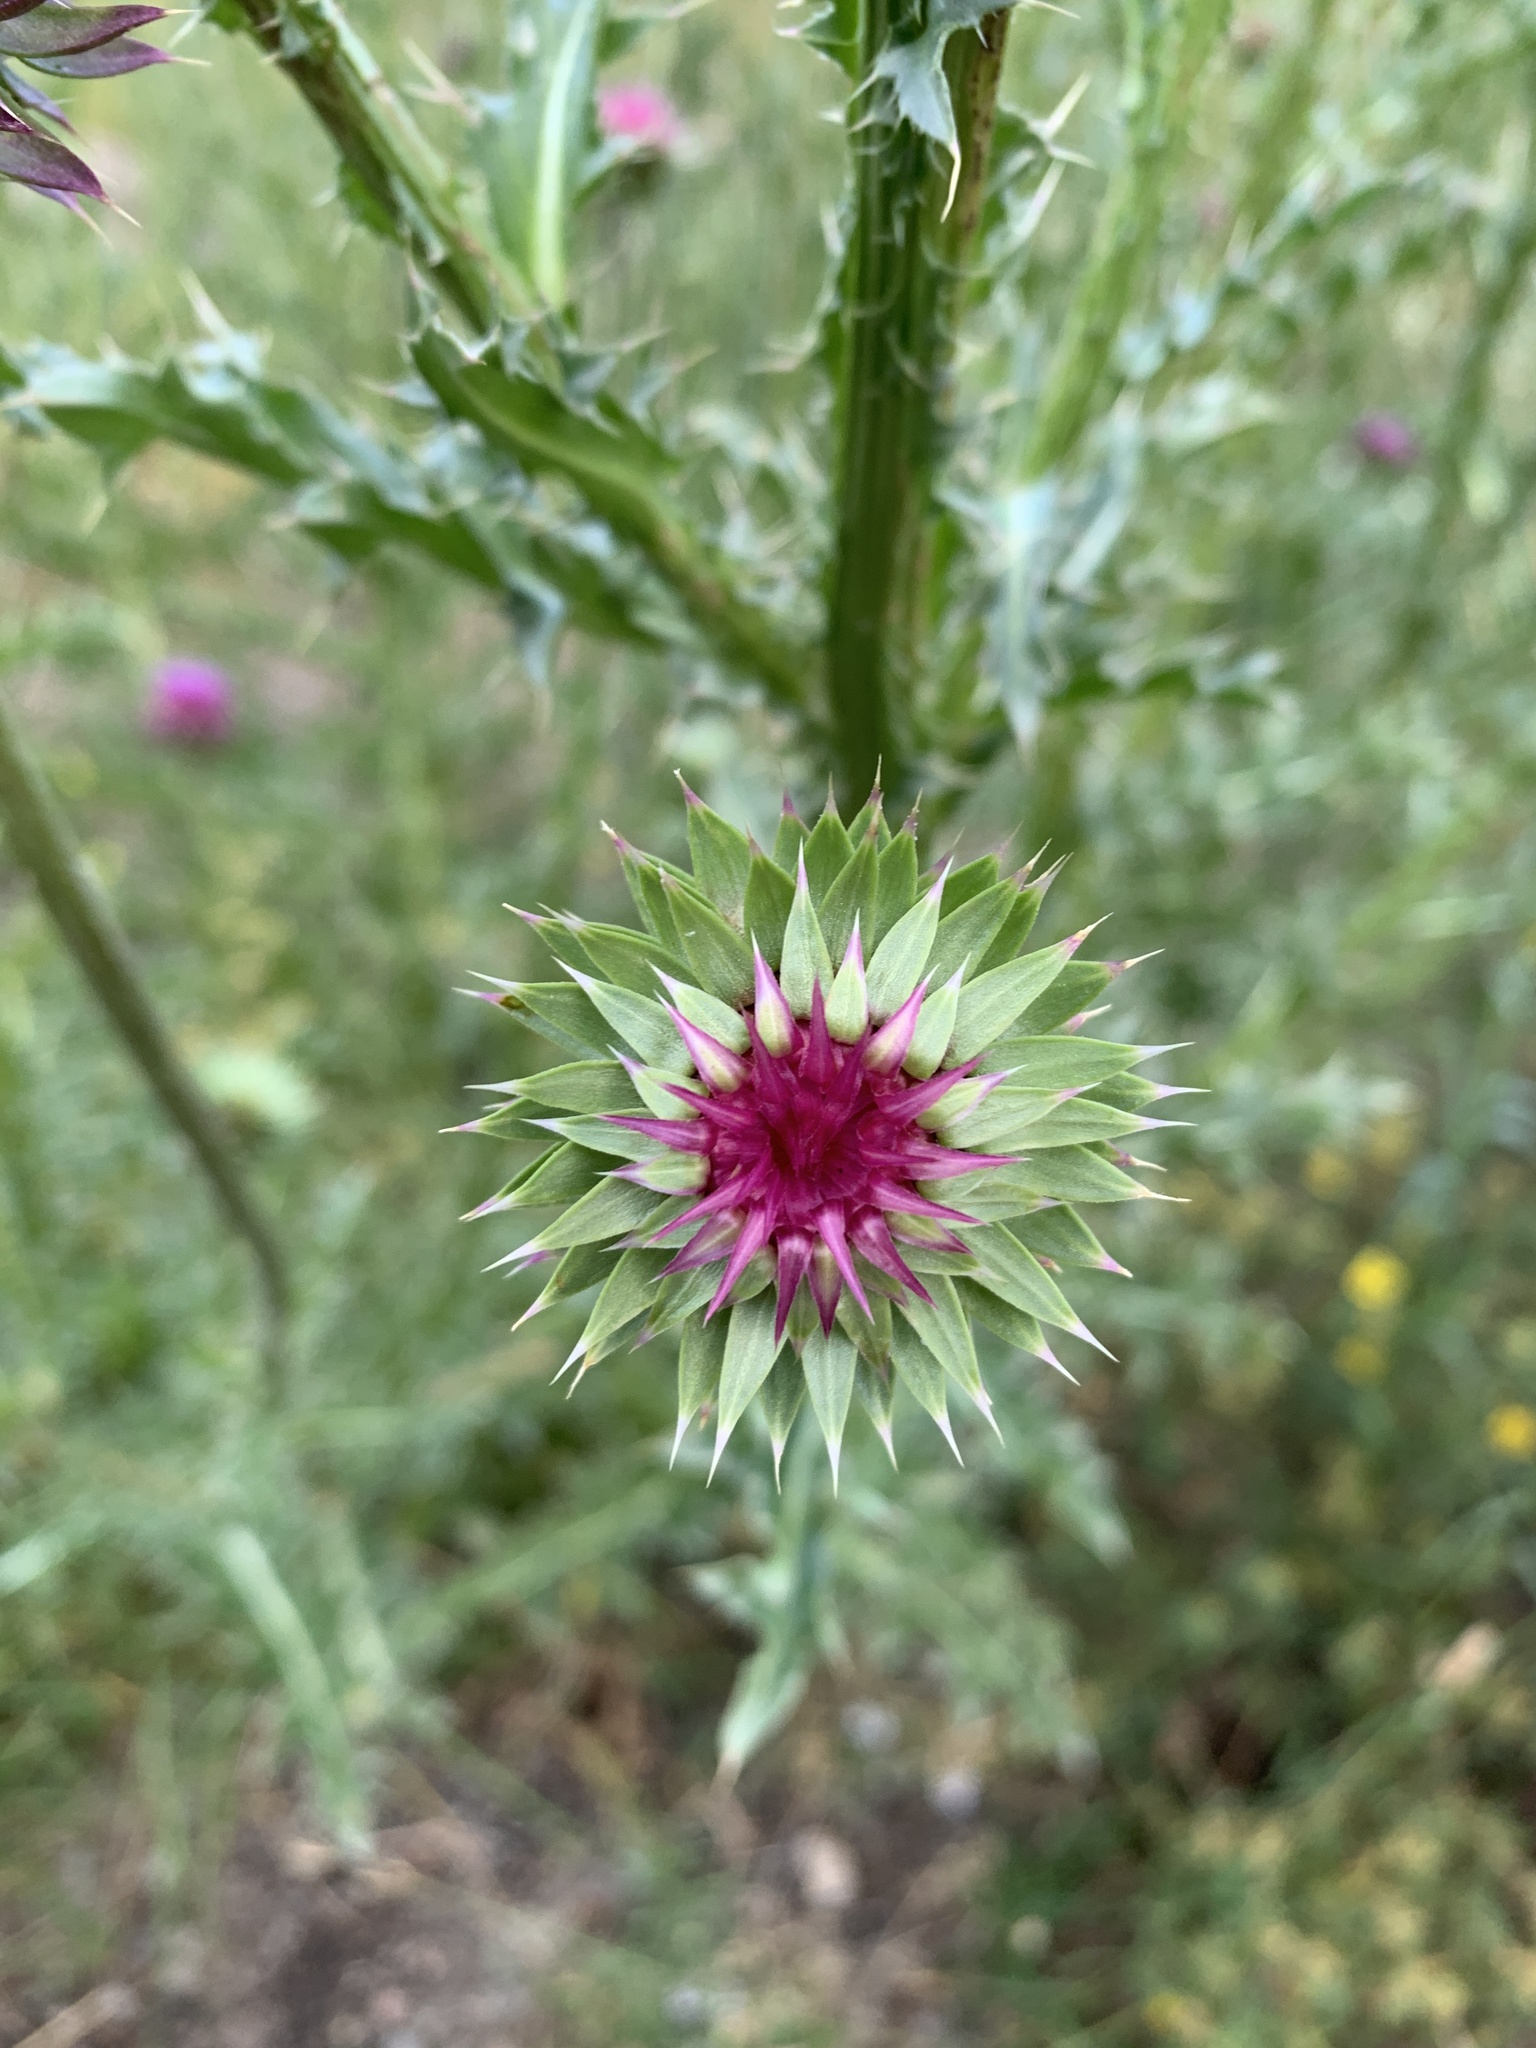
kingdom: Plantae
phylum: Tracheophyta
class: Magnoliopsida
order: Asterales
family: Asteraceae
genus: Carduus
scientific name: Carduus nutans
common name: Musk thistle
